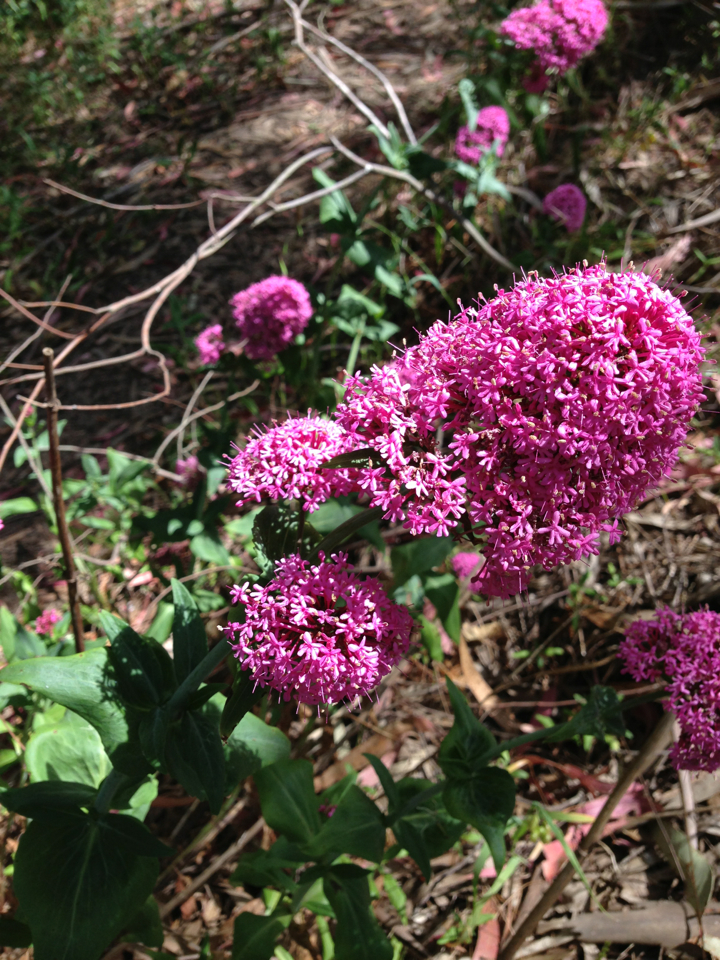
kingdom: Plantae
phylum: Tracheophyta
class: Magnoliopsida
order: Dipsacales
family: Caprifoliaceae
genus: Centranthus
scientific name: Centranthus ruber
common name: Red valerian
